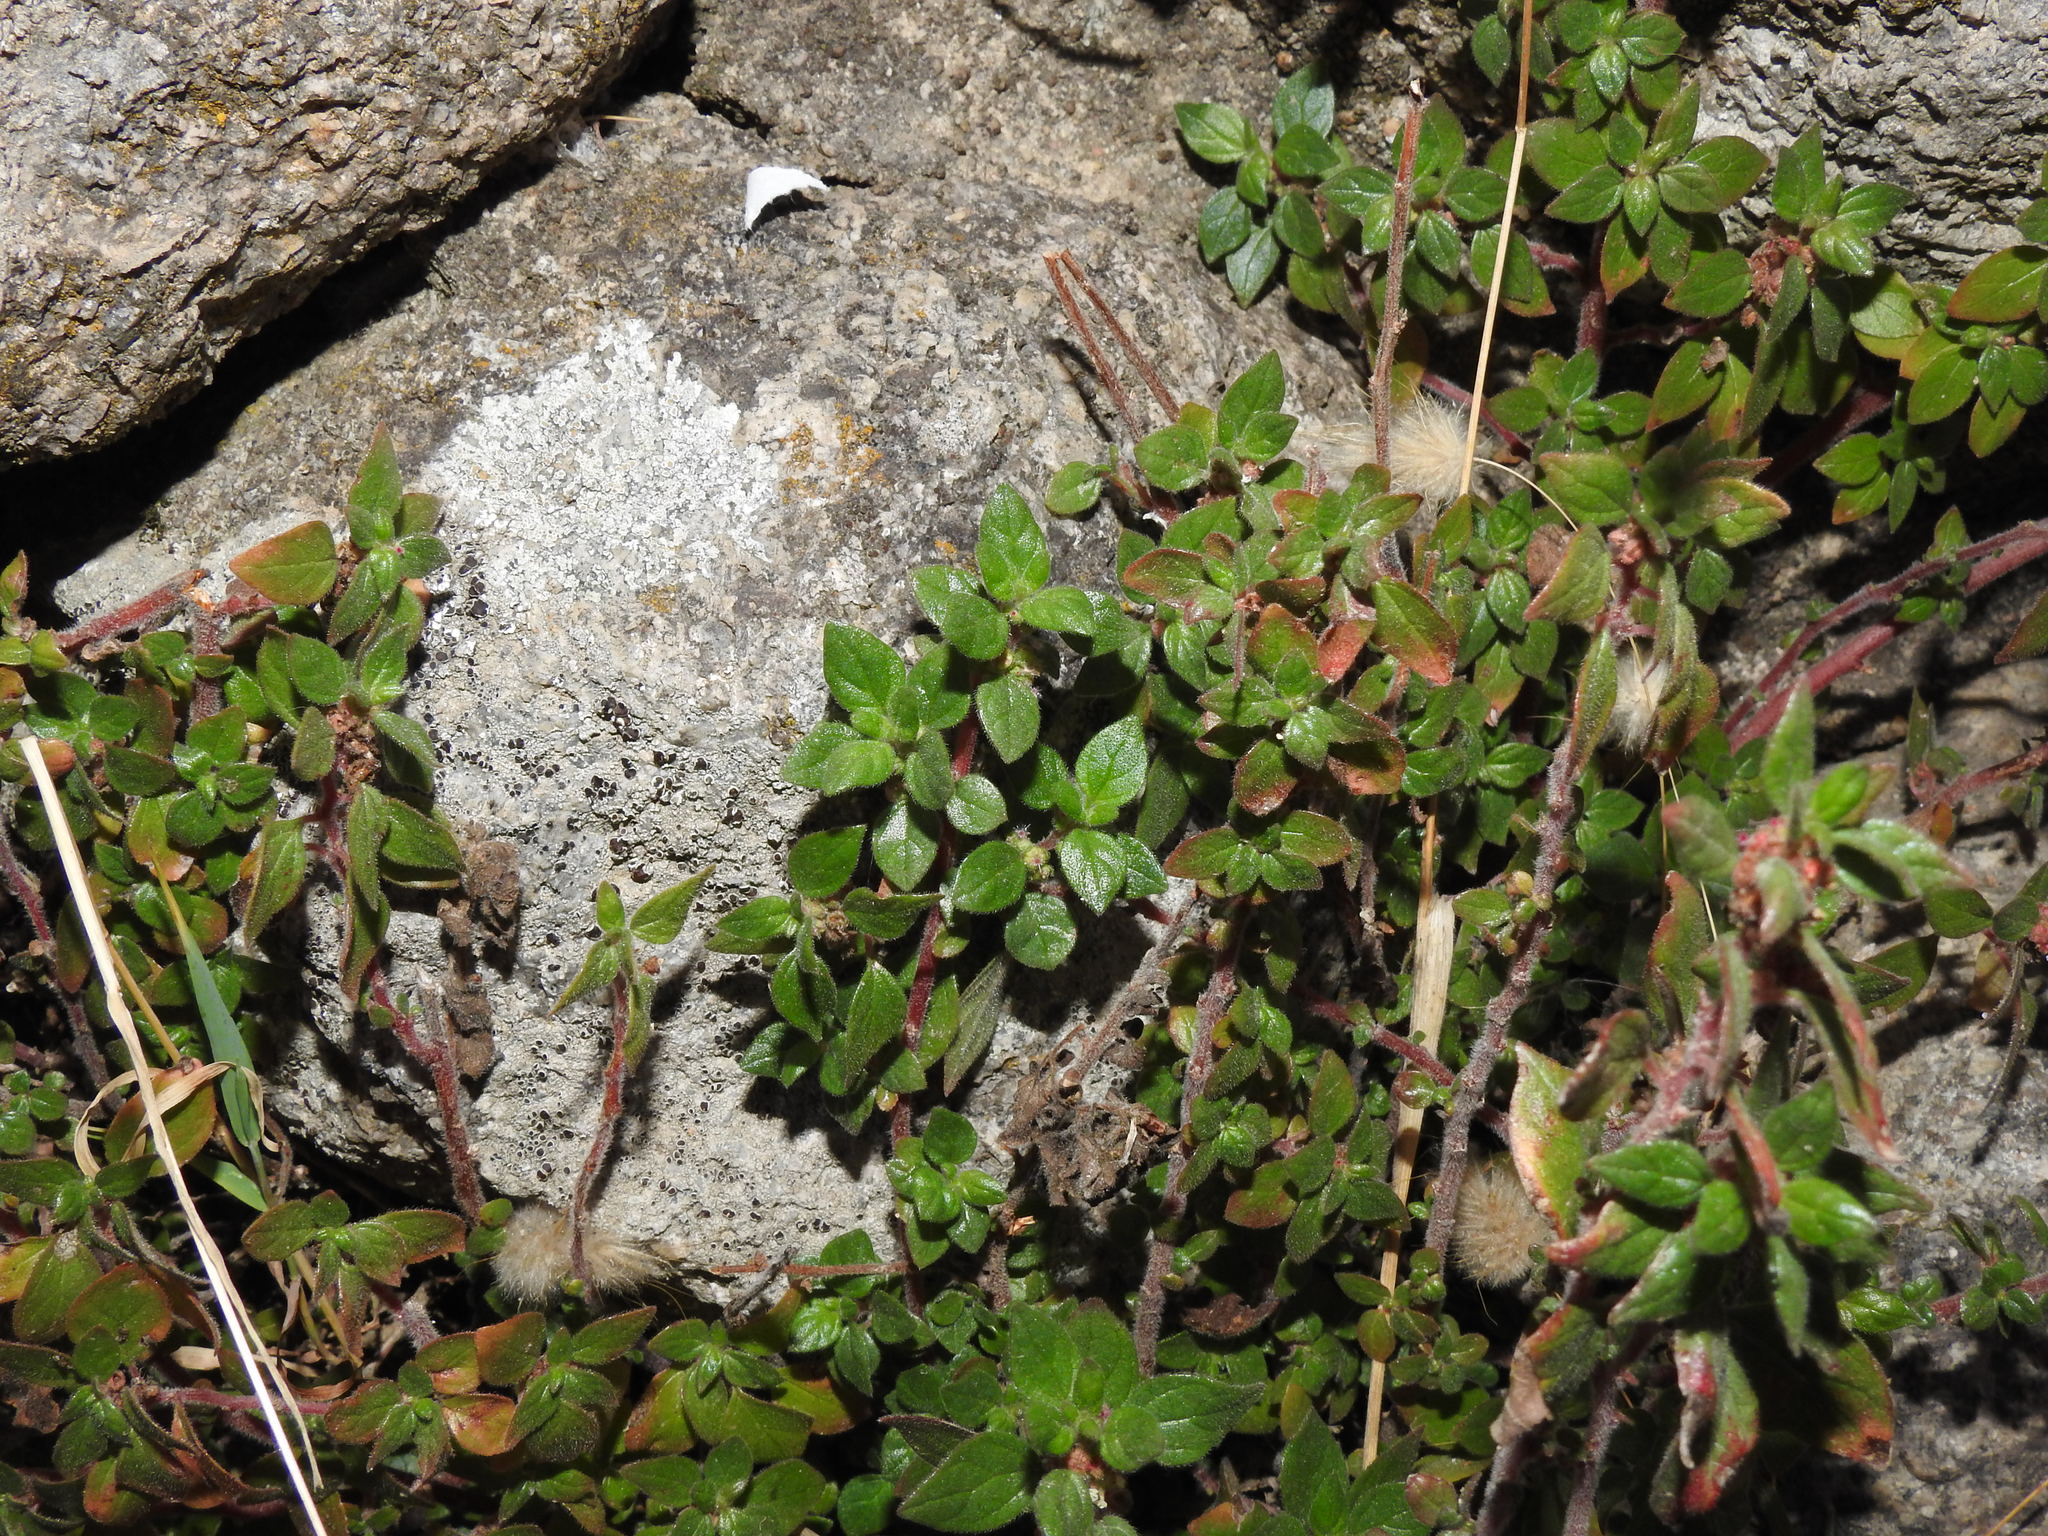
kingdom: Plantae
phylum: Tracheophyta
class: Magnoliopsida
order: Rosales
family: Urticaceae
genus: Parietaria
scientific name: Parietaria judaica
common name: Pellitory-of-the-wall
